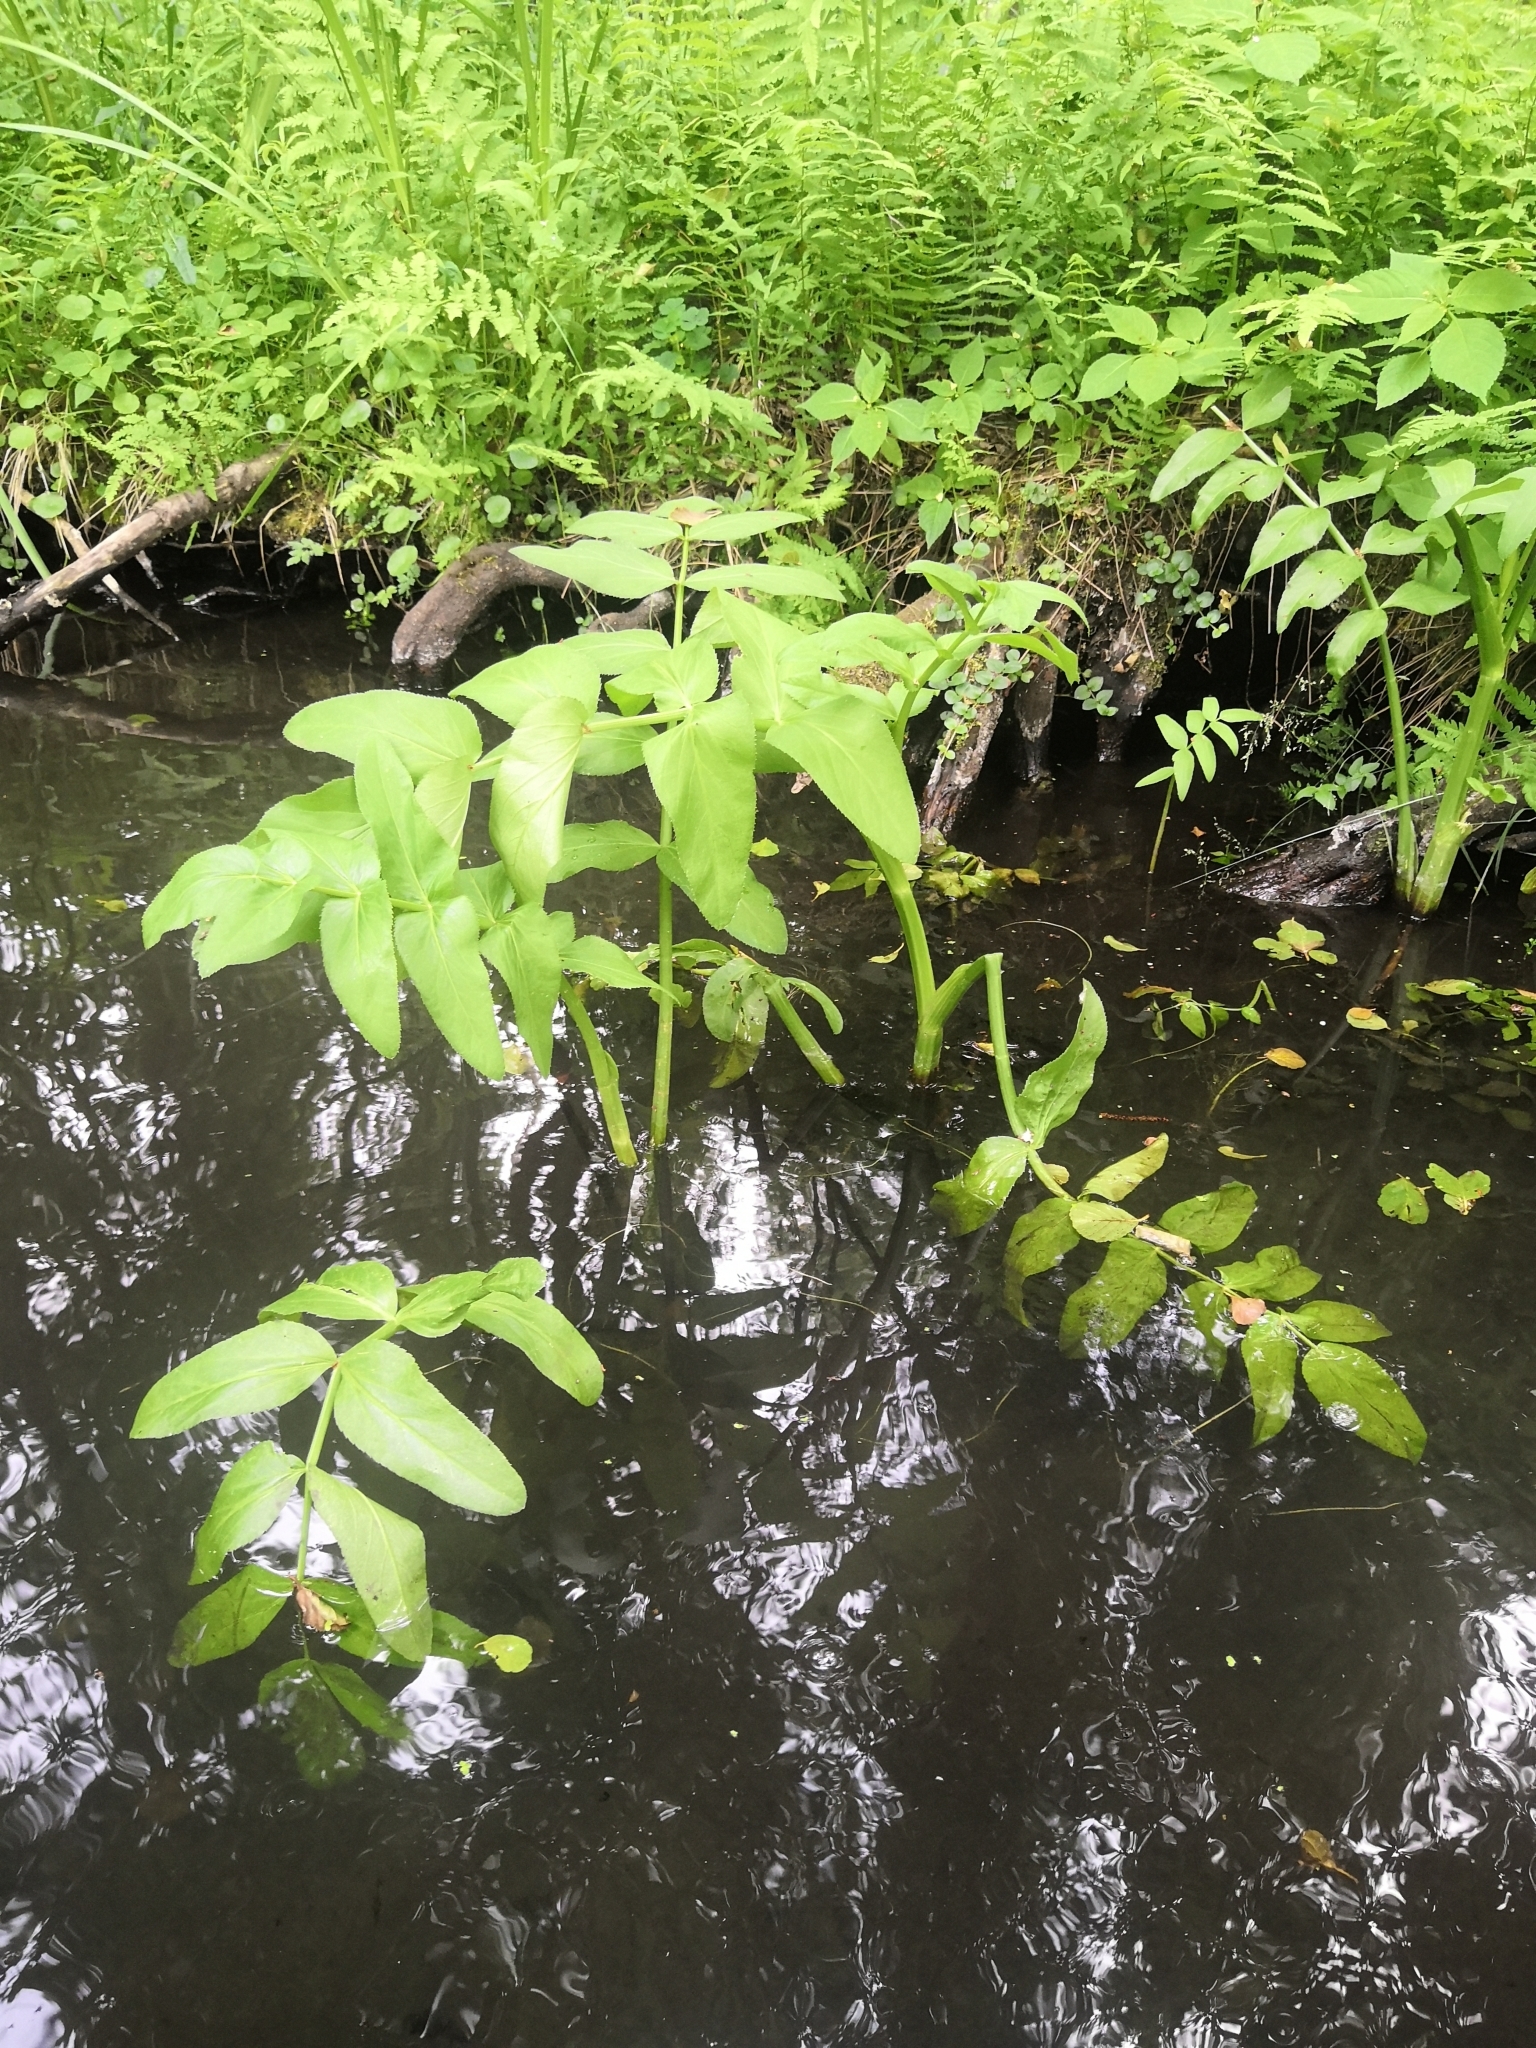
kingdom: Plantae
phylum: Tracheophyta
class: Magnoliopsida
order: Apiales
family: Apiaceae
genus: Sium
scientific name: Sium latifolium
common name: Greater water-parsnip
